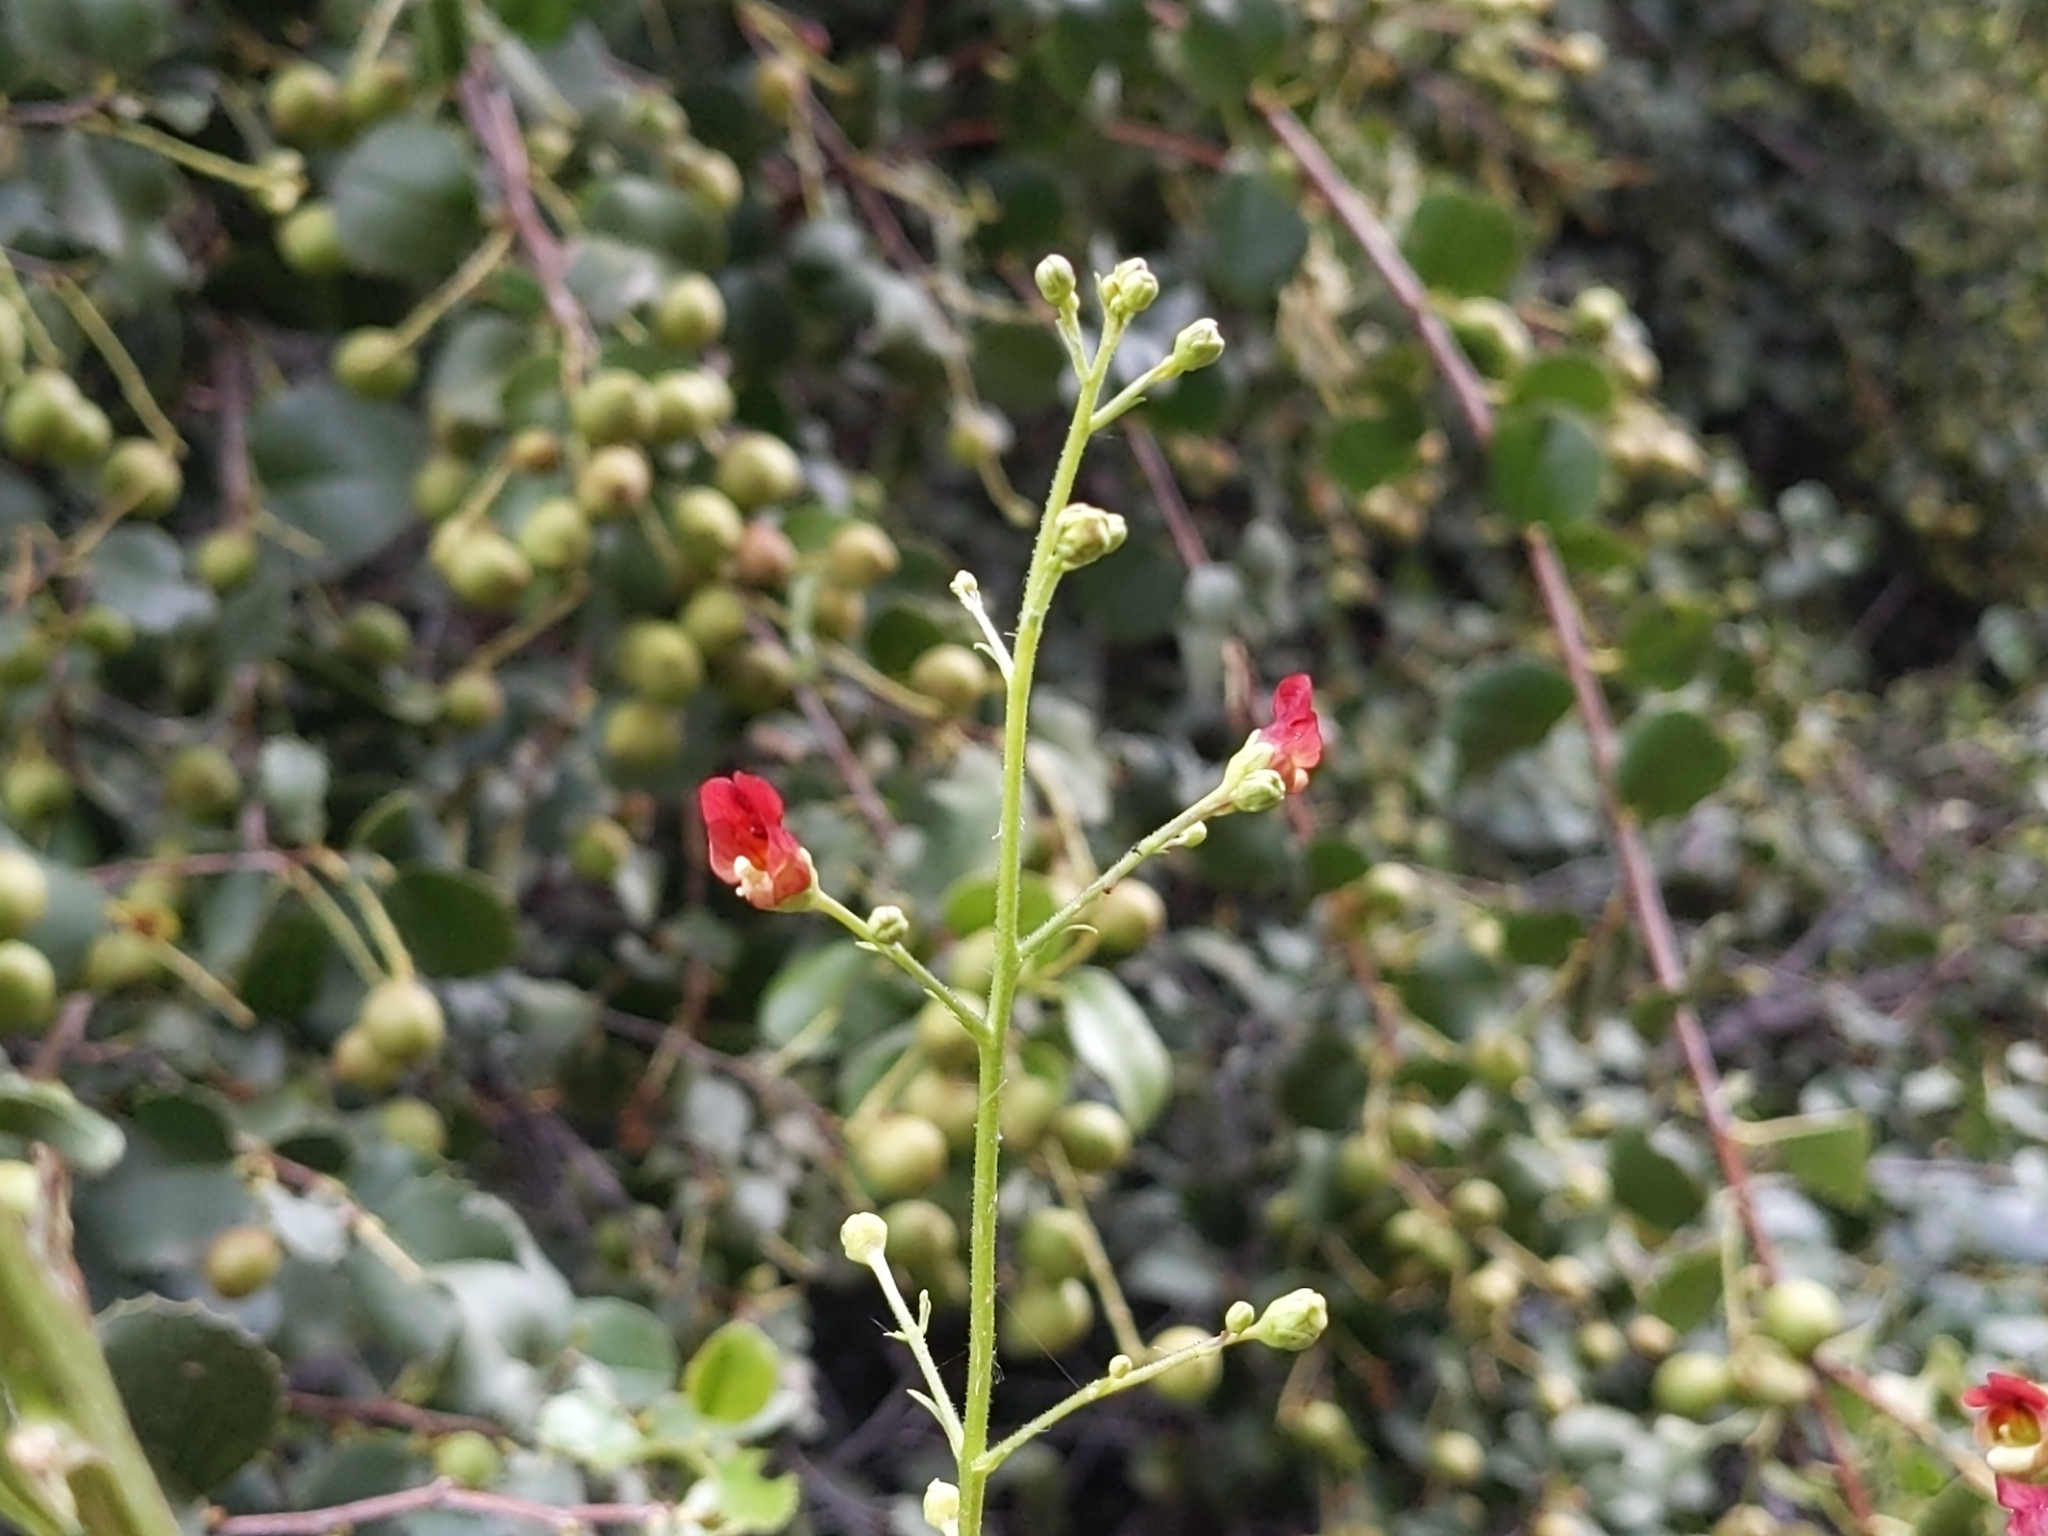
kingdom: Plantae
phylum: Tracheophyta
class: Magnoliopsida
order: Lamiales
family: Scrophulariaceae
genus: Scrophularia
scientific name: Scrophularia californica
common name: California figwort
